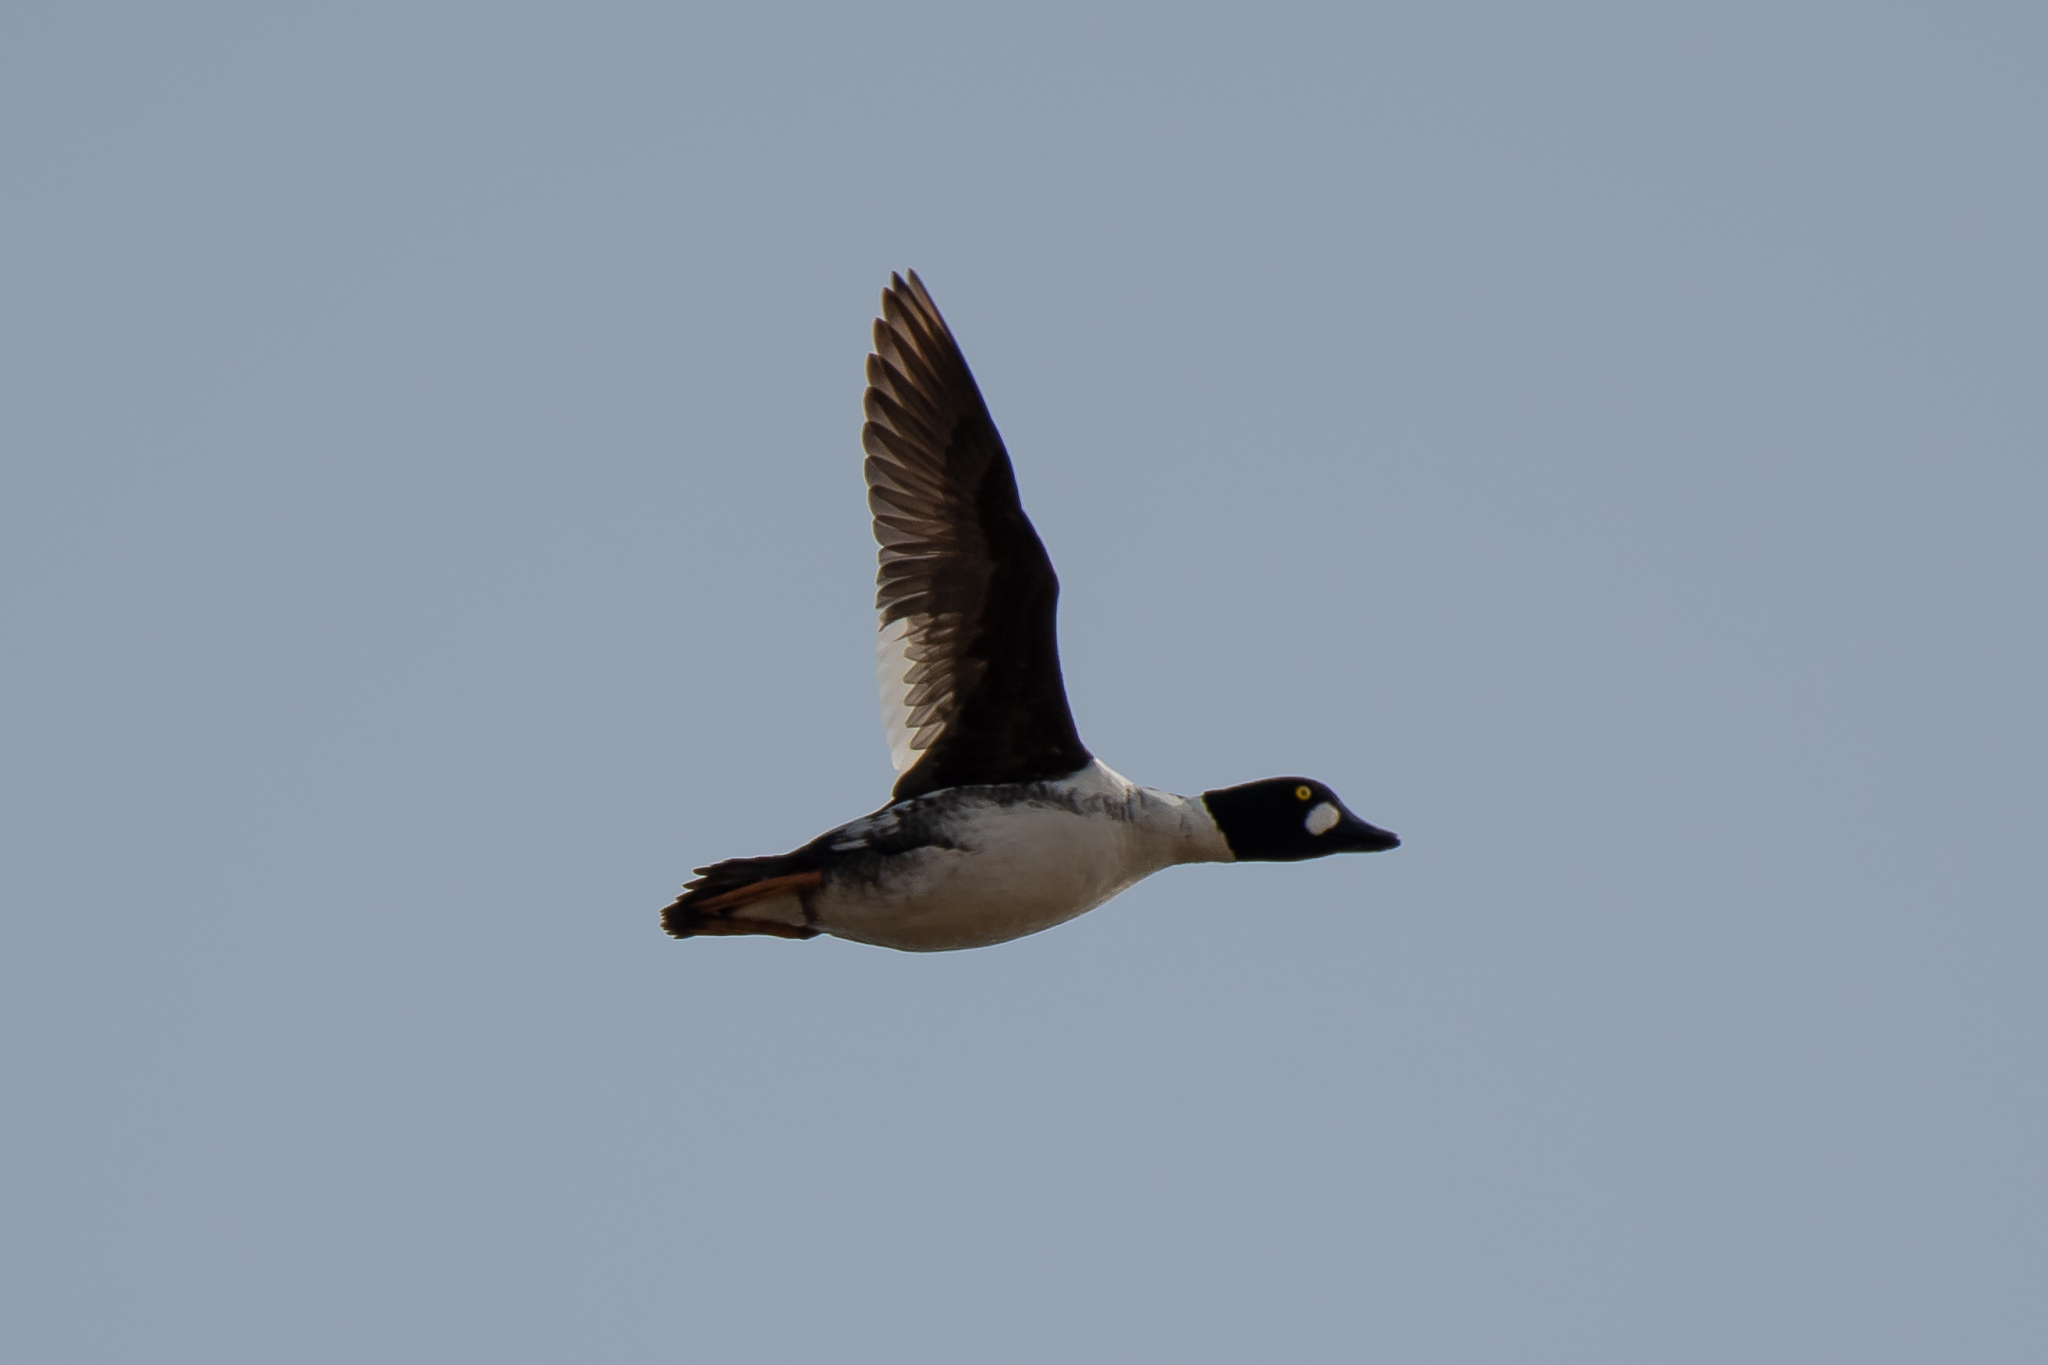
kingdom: Animalia
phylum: Chordata
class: Aves
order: Anseriformes
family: Anatidae
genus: Bucephala
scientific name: Bucephala clangula
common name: Common goldeneye
